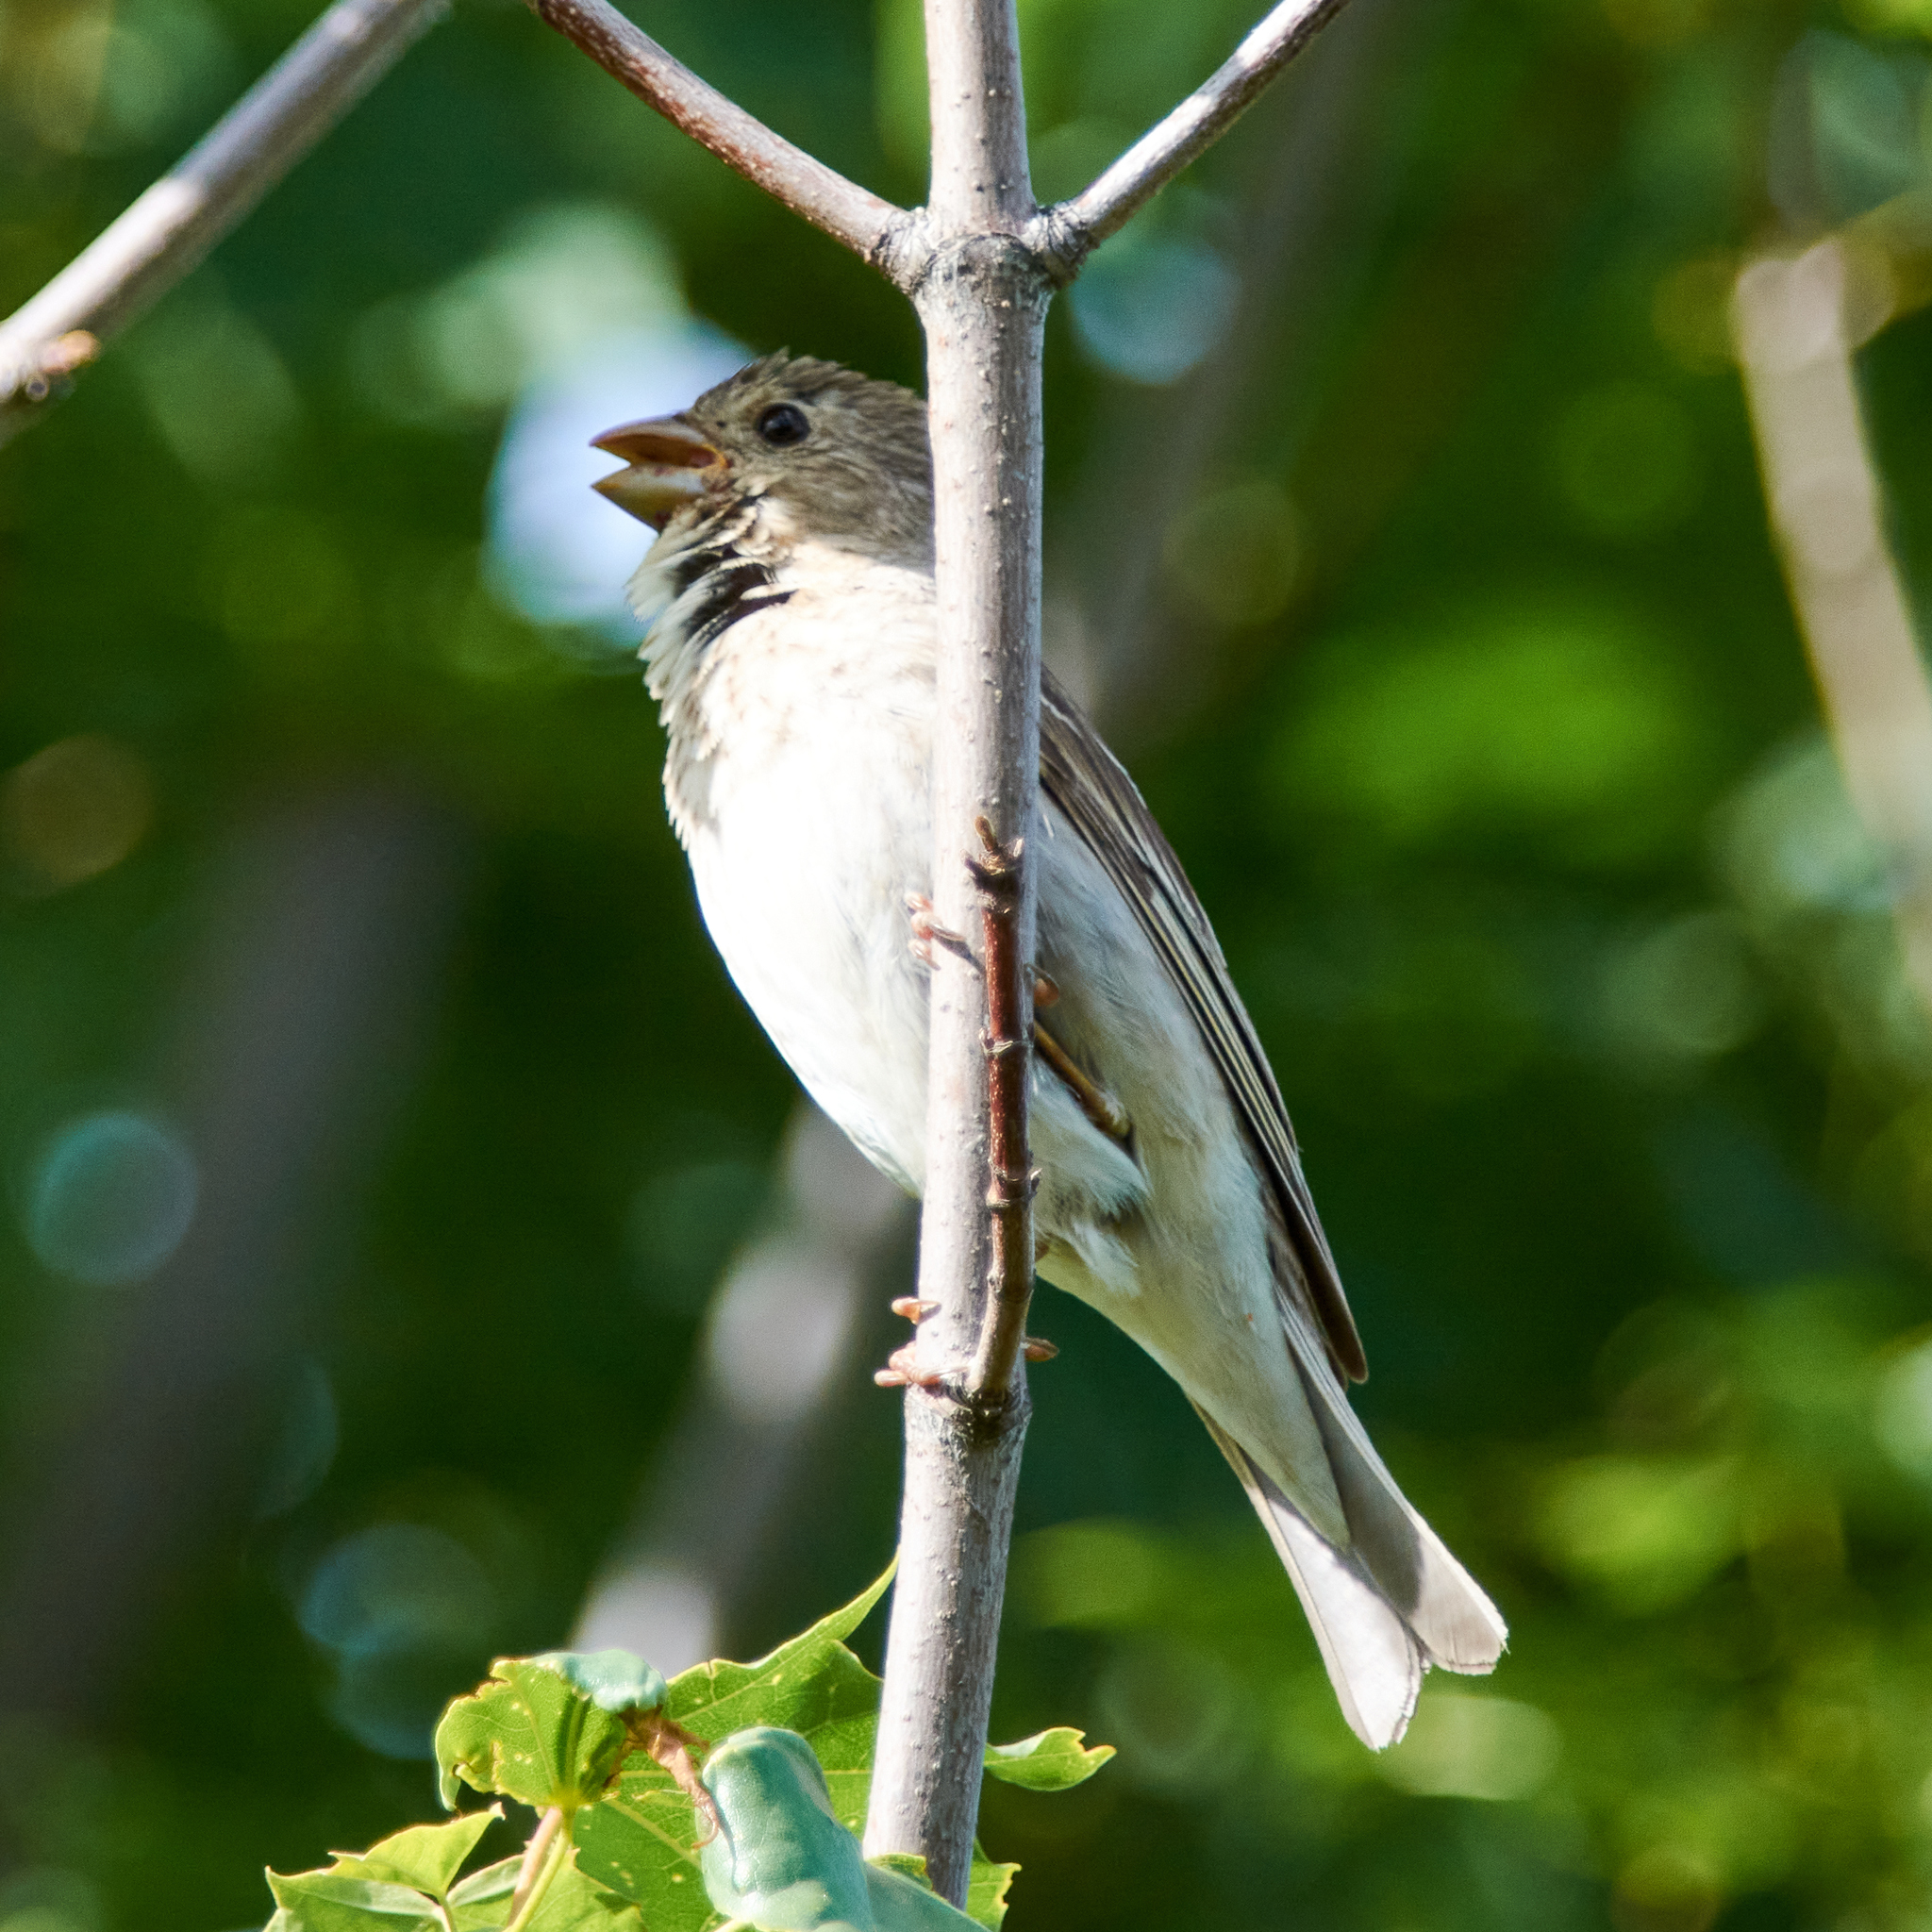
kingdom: Animalia
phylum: Chordata
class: Aves
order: Passeriformes
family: Fringillidae
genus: Carpodacus
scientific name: Carpodacus erythrinus
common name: Common rosefinch
